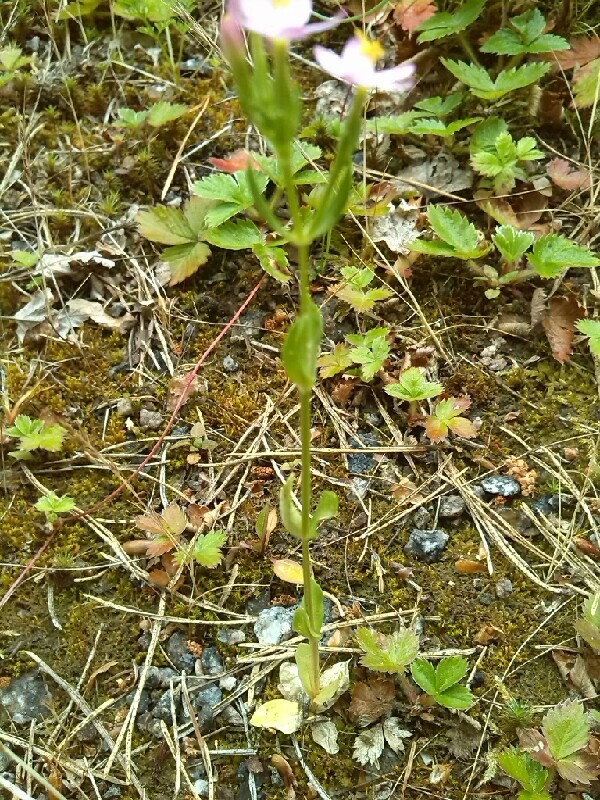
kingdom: Plantae
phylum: Tracheophyta
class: Magnoliopsida
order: Gentianales
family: Gentianaceae
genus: Centaurium
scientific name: Centaurium erythraea
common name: Common centaury
